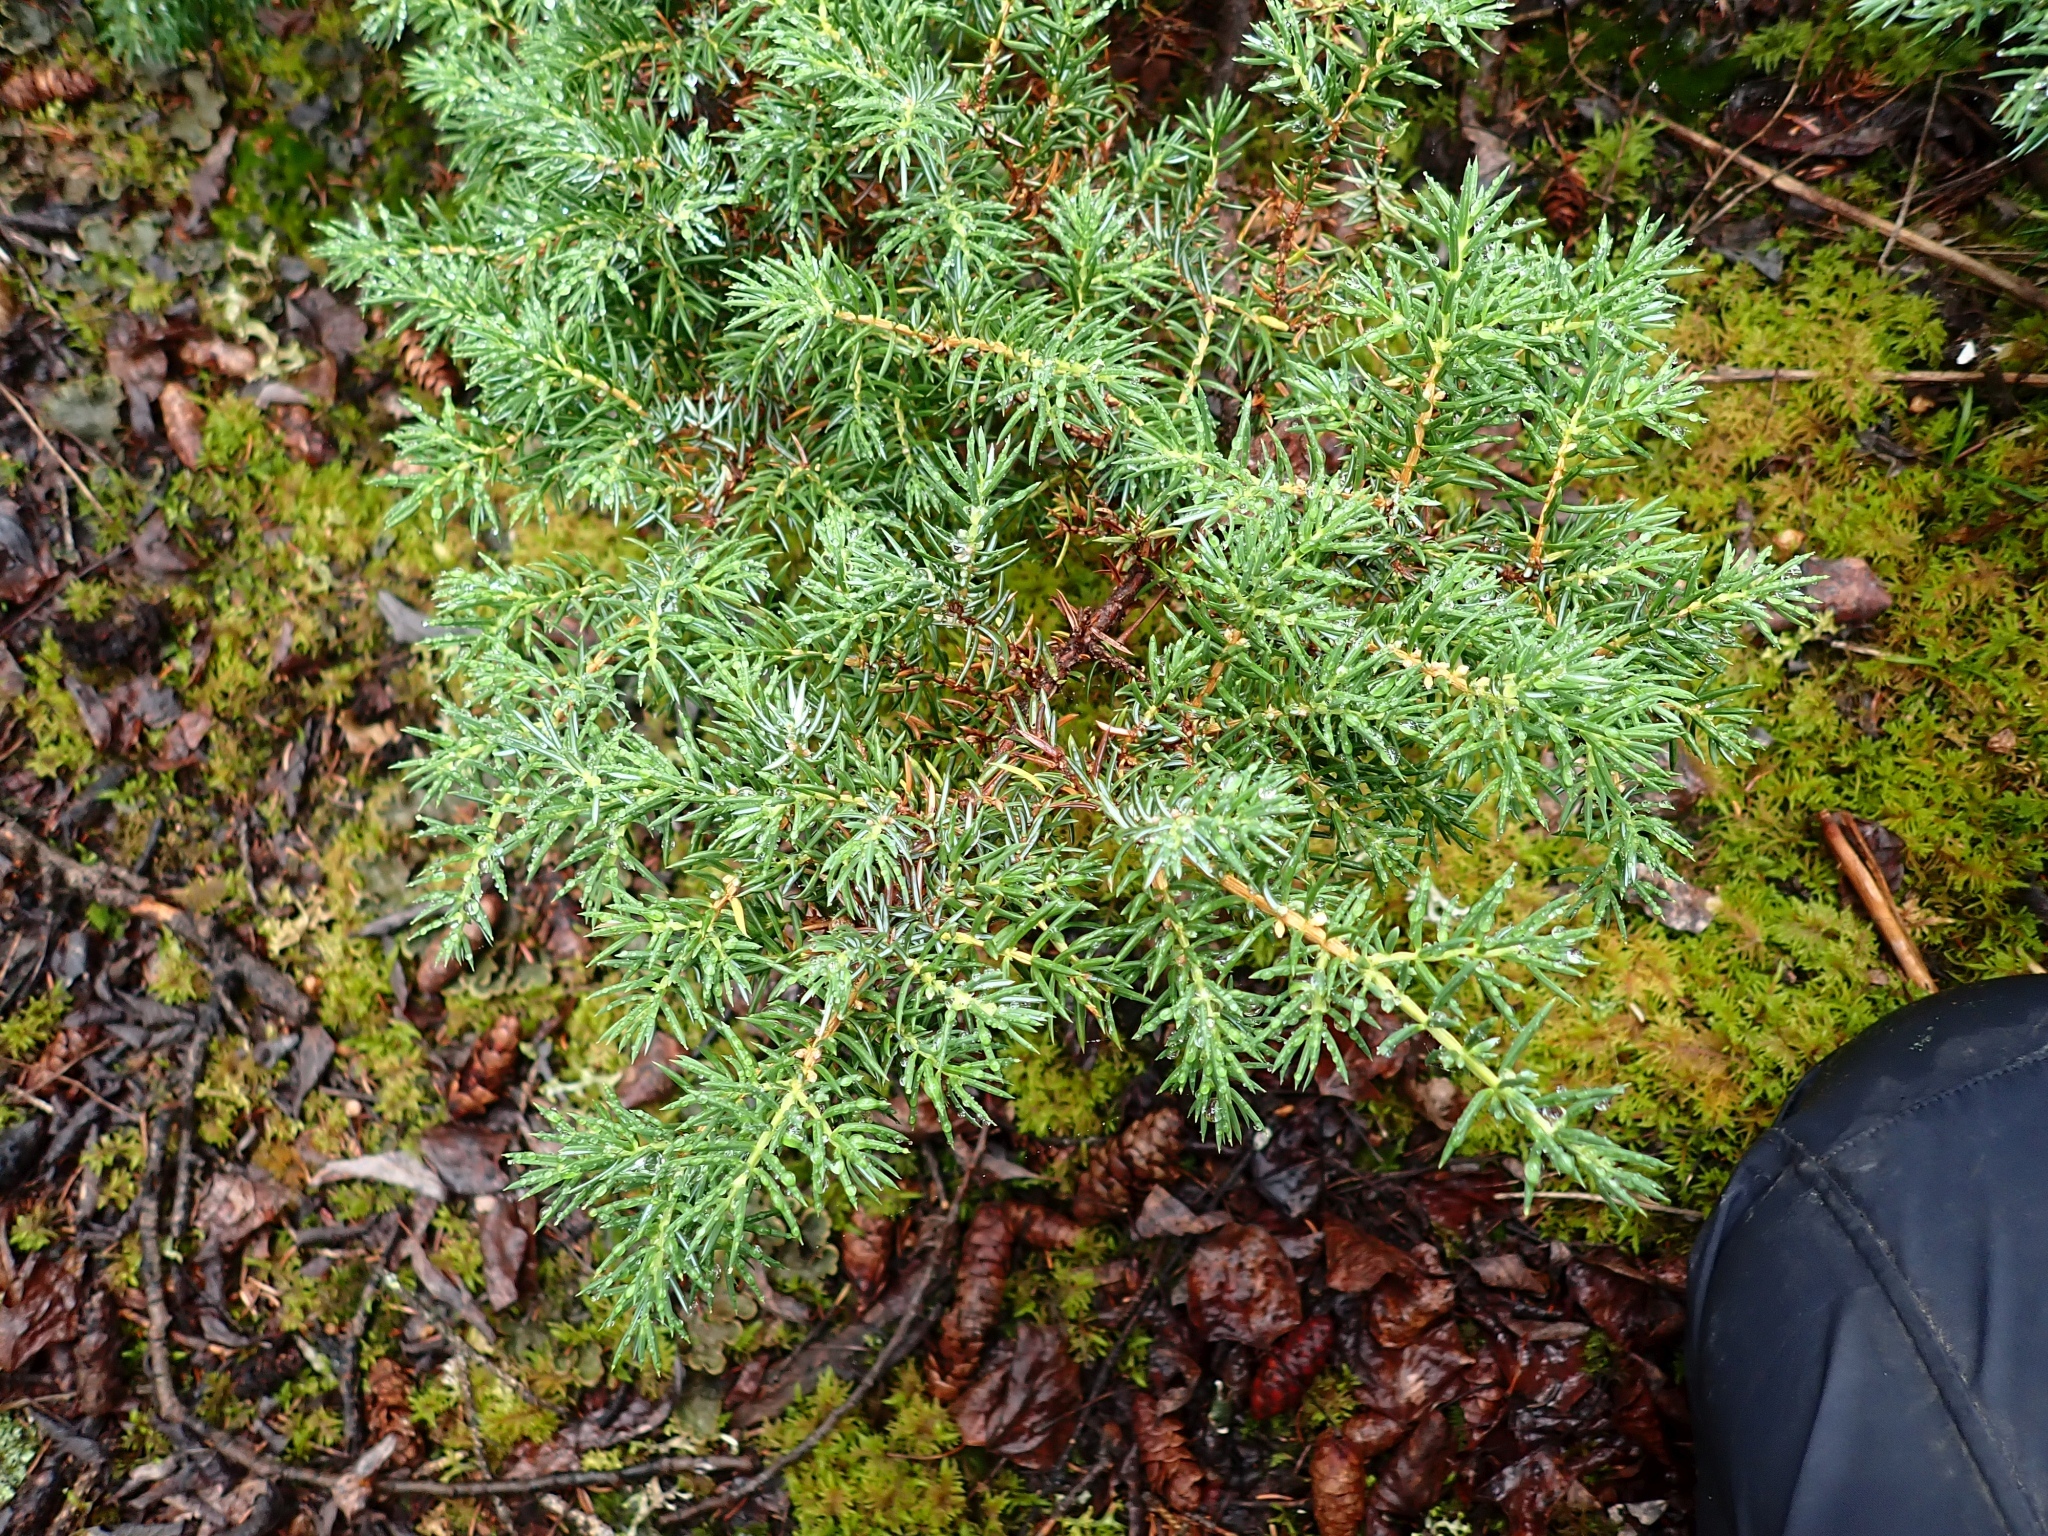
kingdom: Plantae
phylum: Tracheophyta
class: Pinopsida
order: Pinales
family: Cupressaceae
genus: Juniperus
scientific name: Juniperus communis
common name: Common juniper
